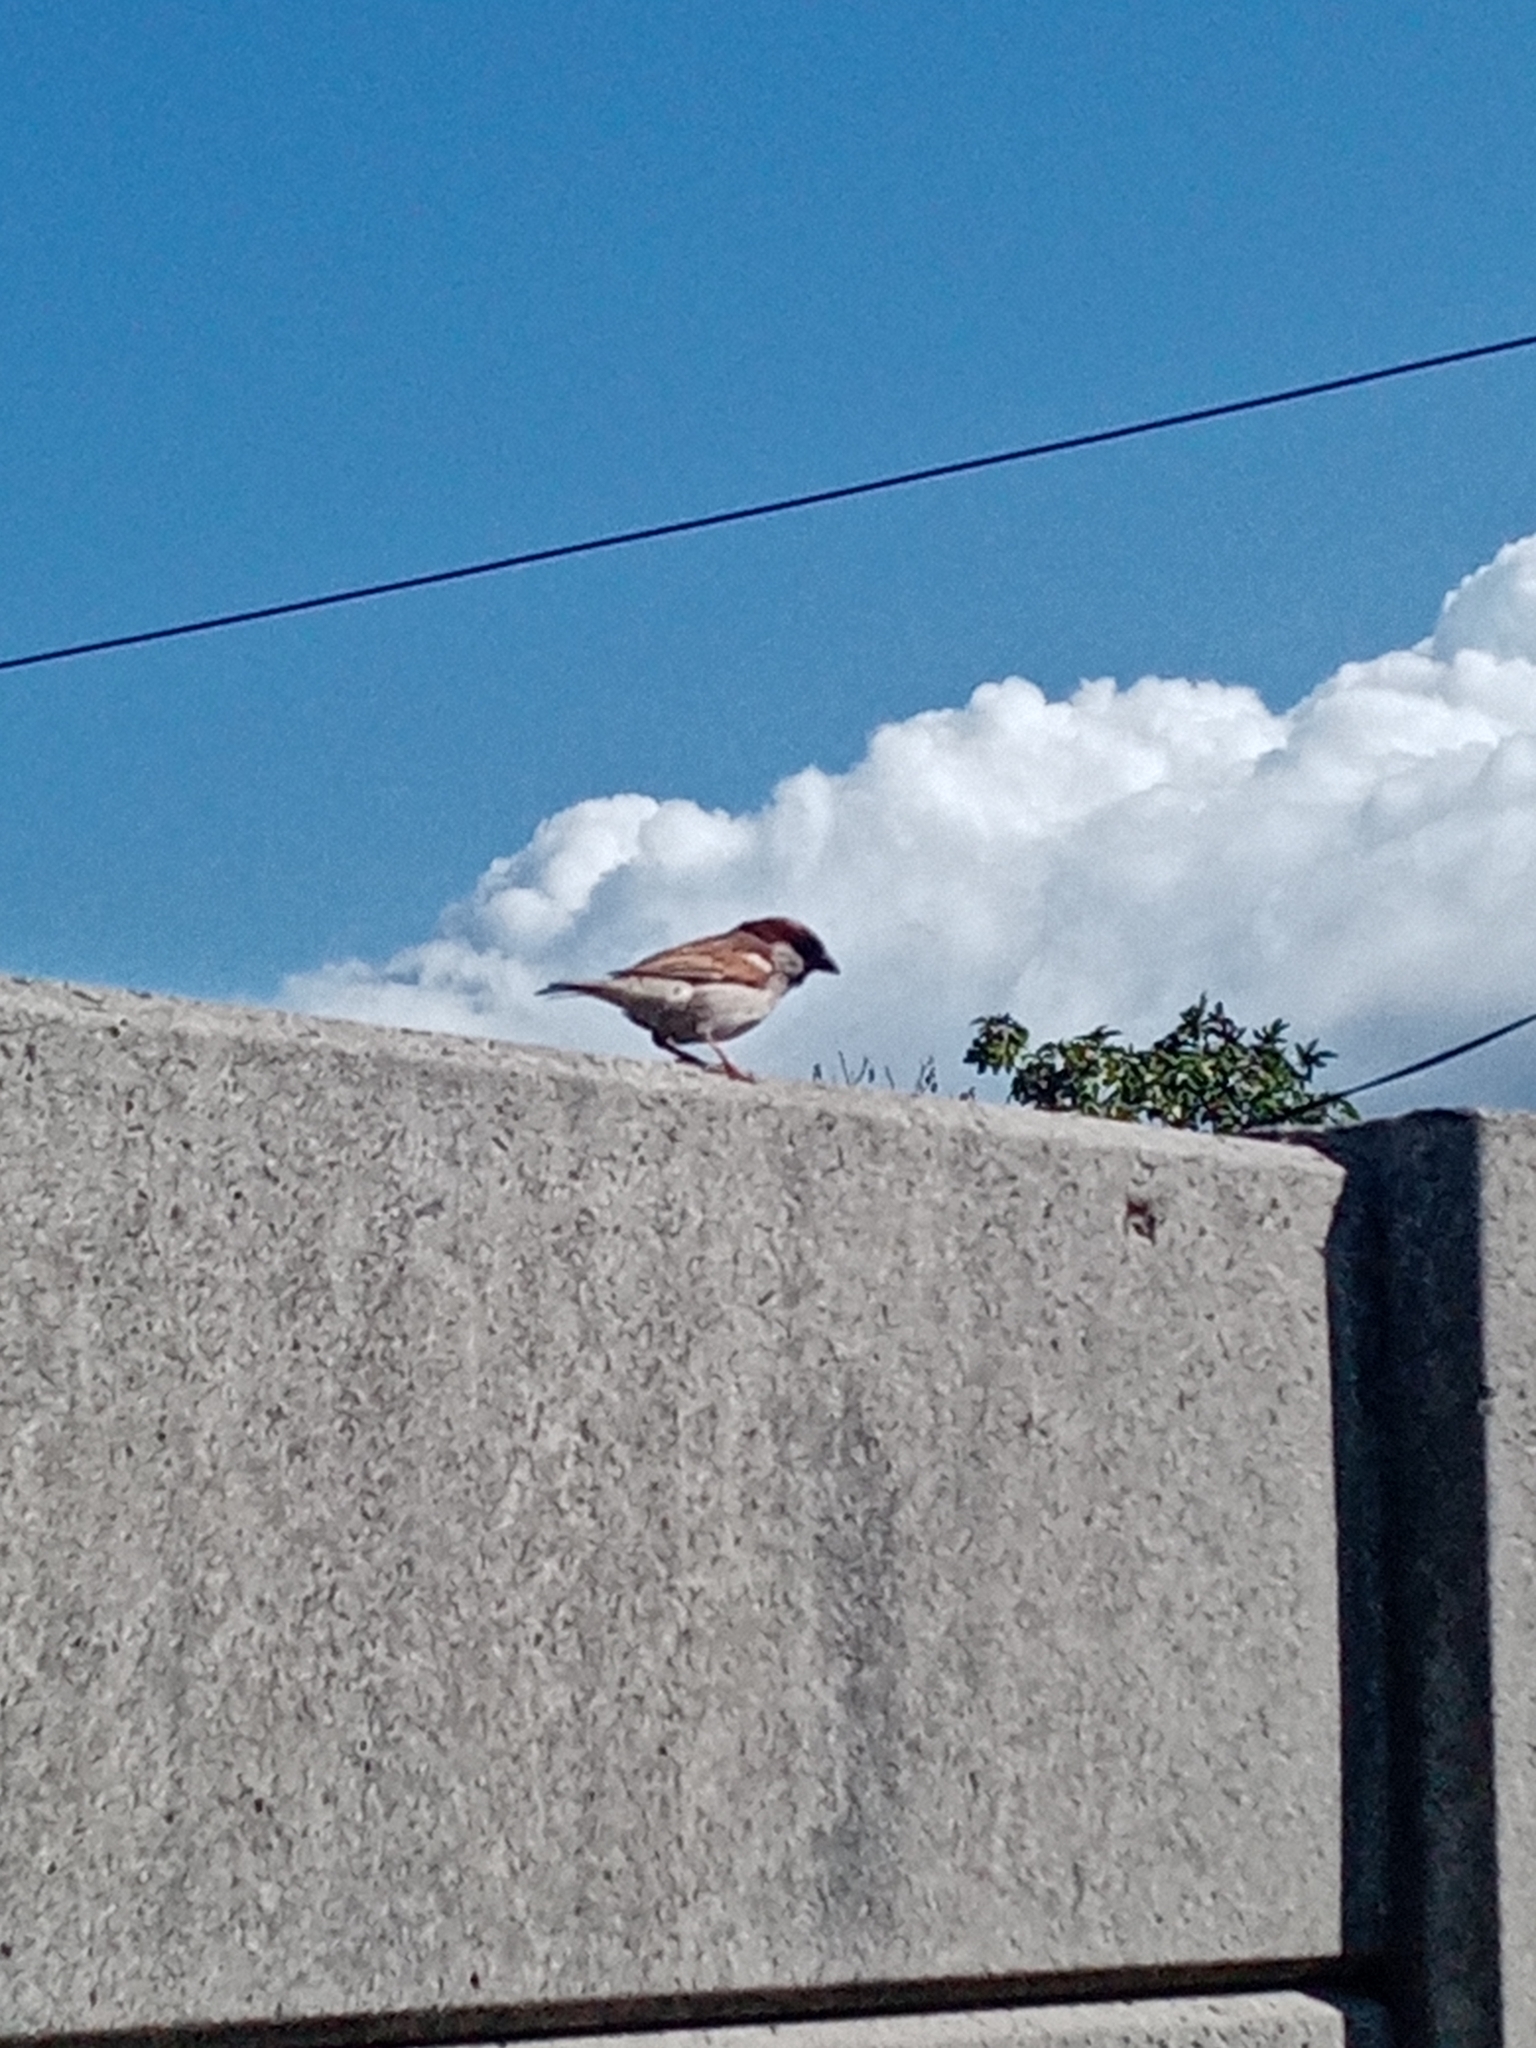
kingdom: Animalia
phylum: Chordata
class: Aves
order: Passeriformes
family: Passeridae
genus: Passer
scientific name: Passer domesticus
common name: House sparrow
